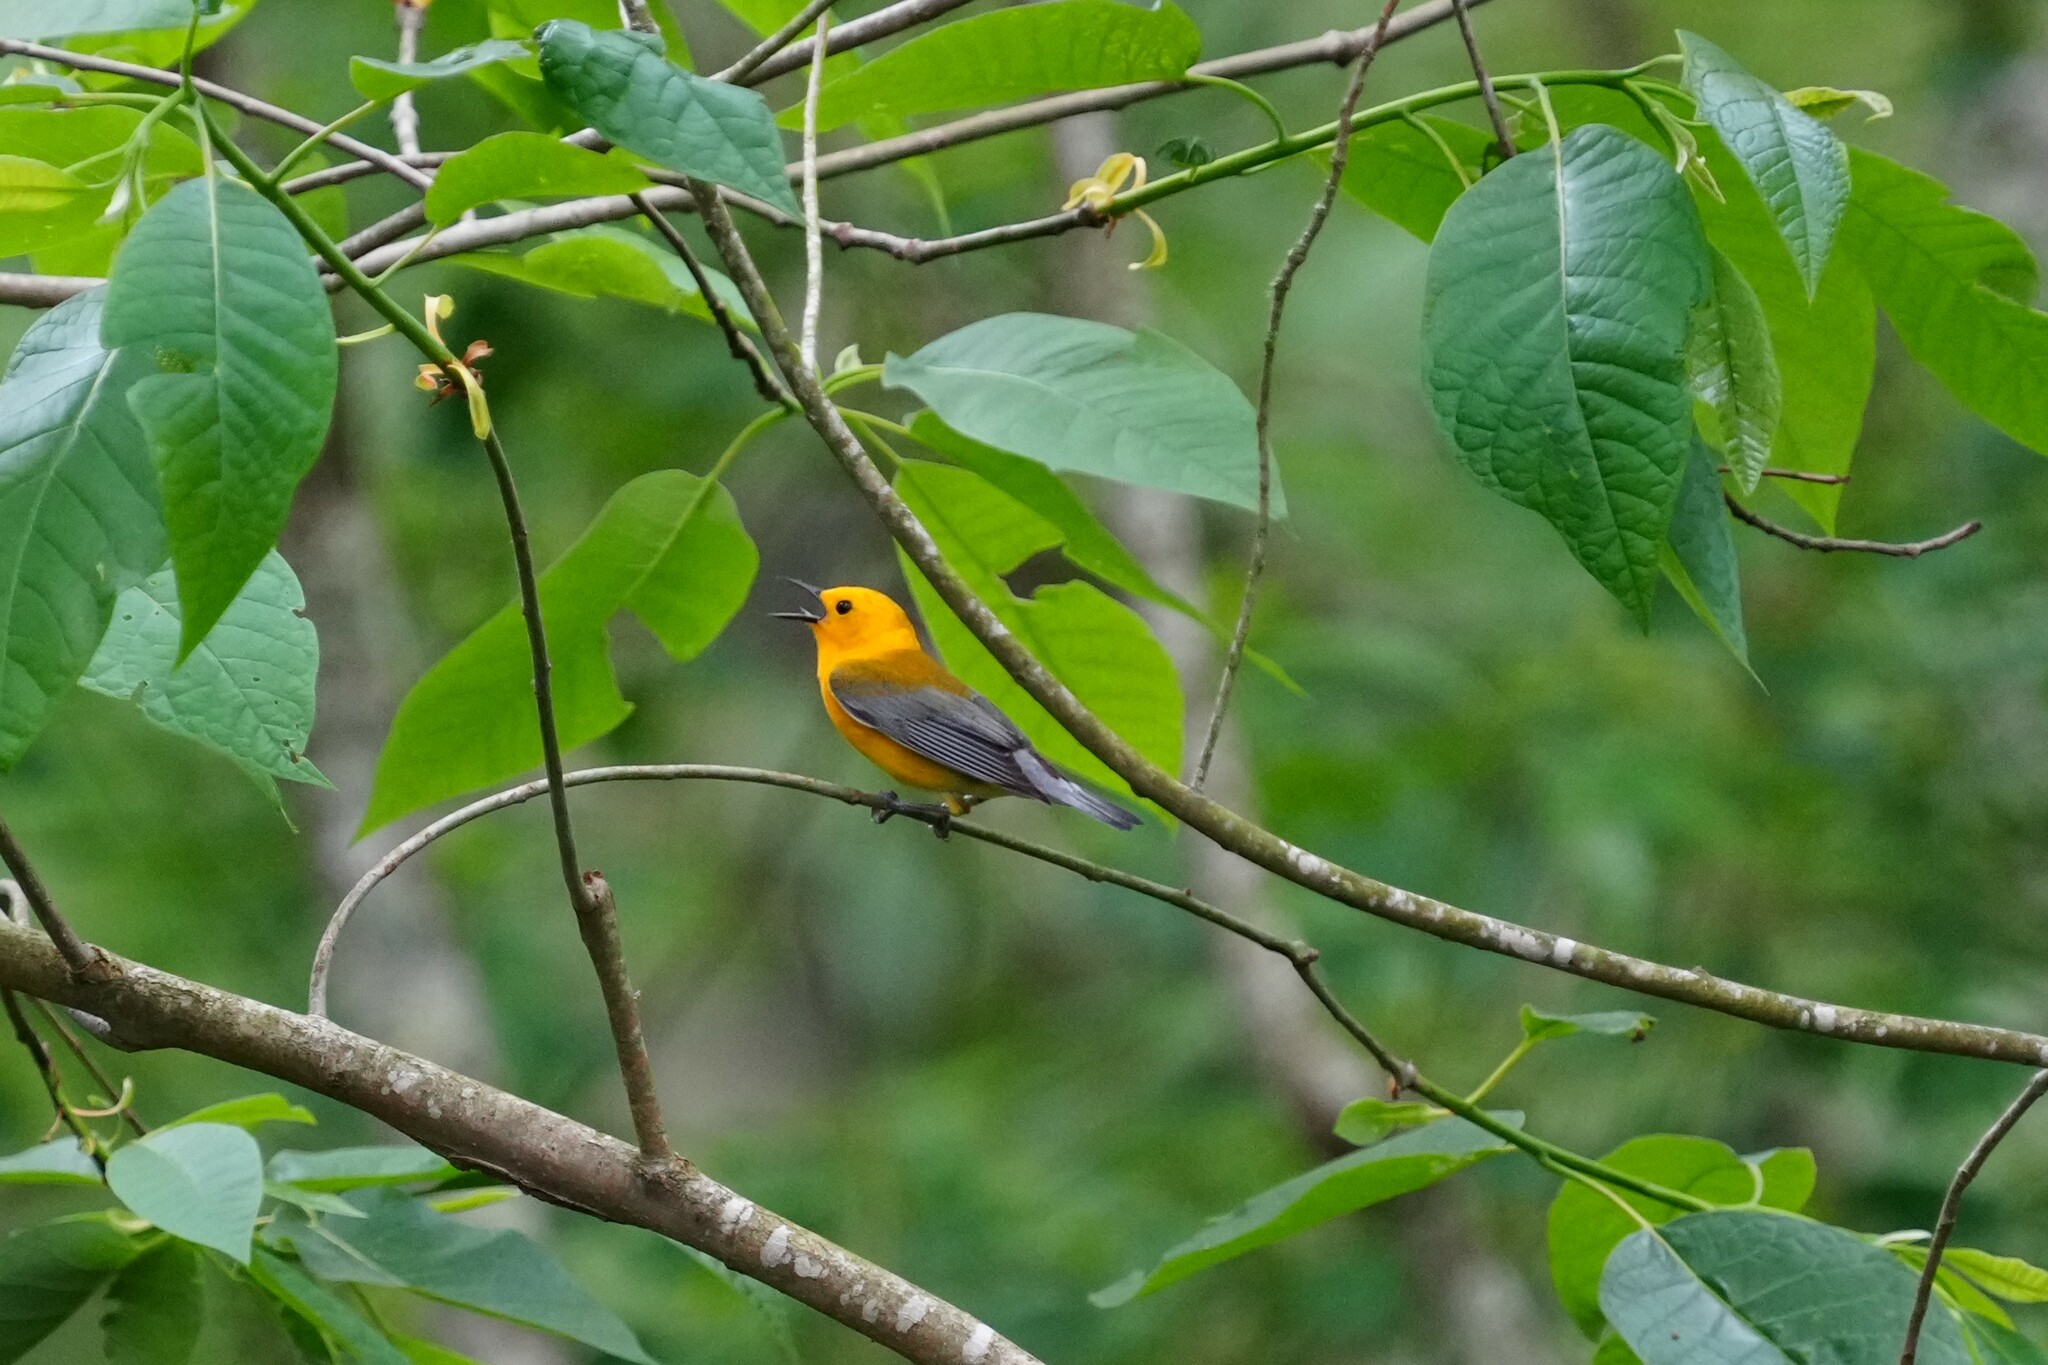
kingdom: Animalia
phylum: Chordata
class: Aves
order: Passeriformes
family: Parulidae
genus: Protonotaria
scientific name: Protonotaria citrea
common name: Prothonotary warbler
